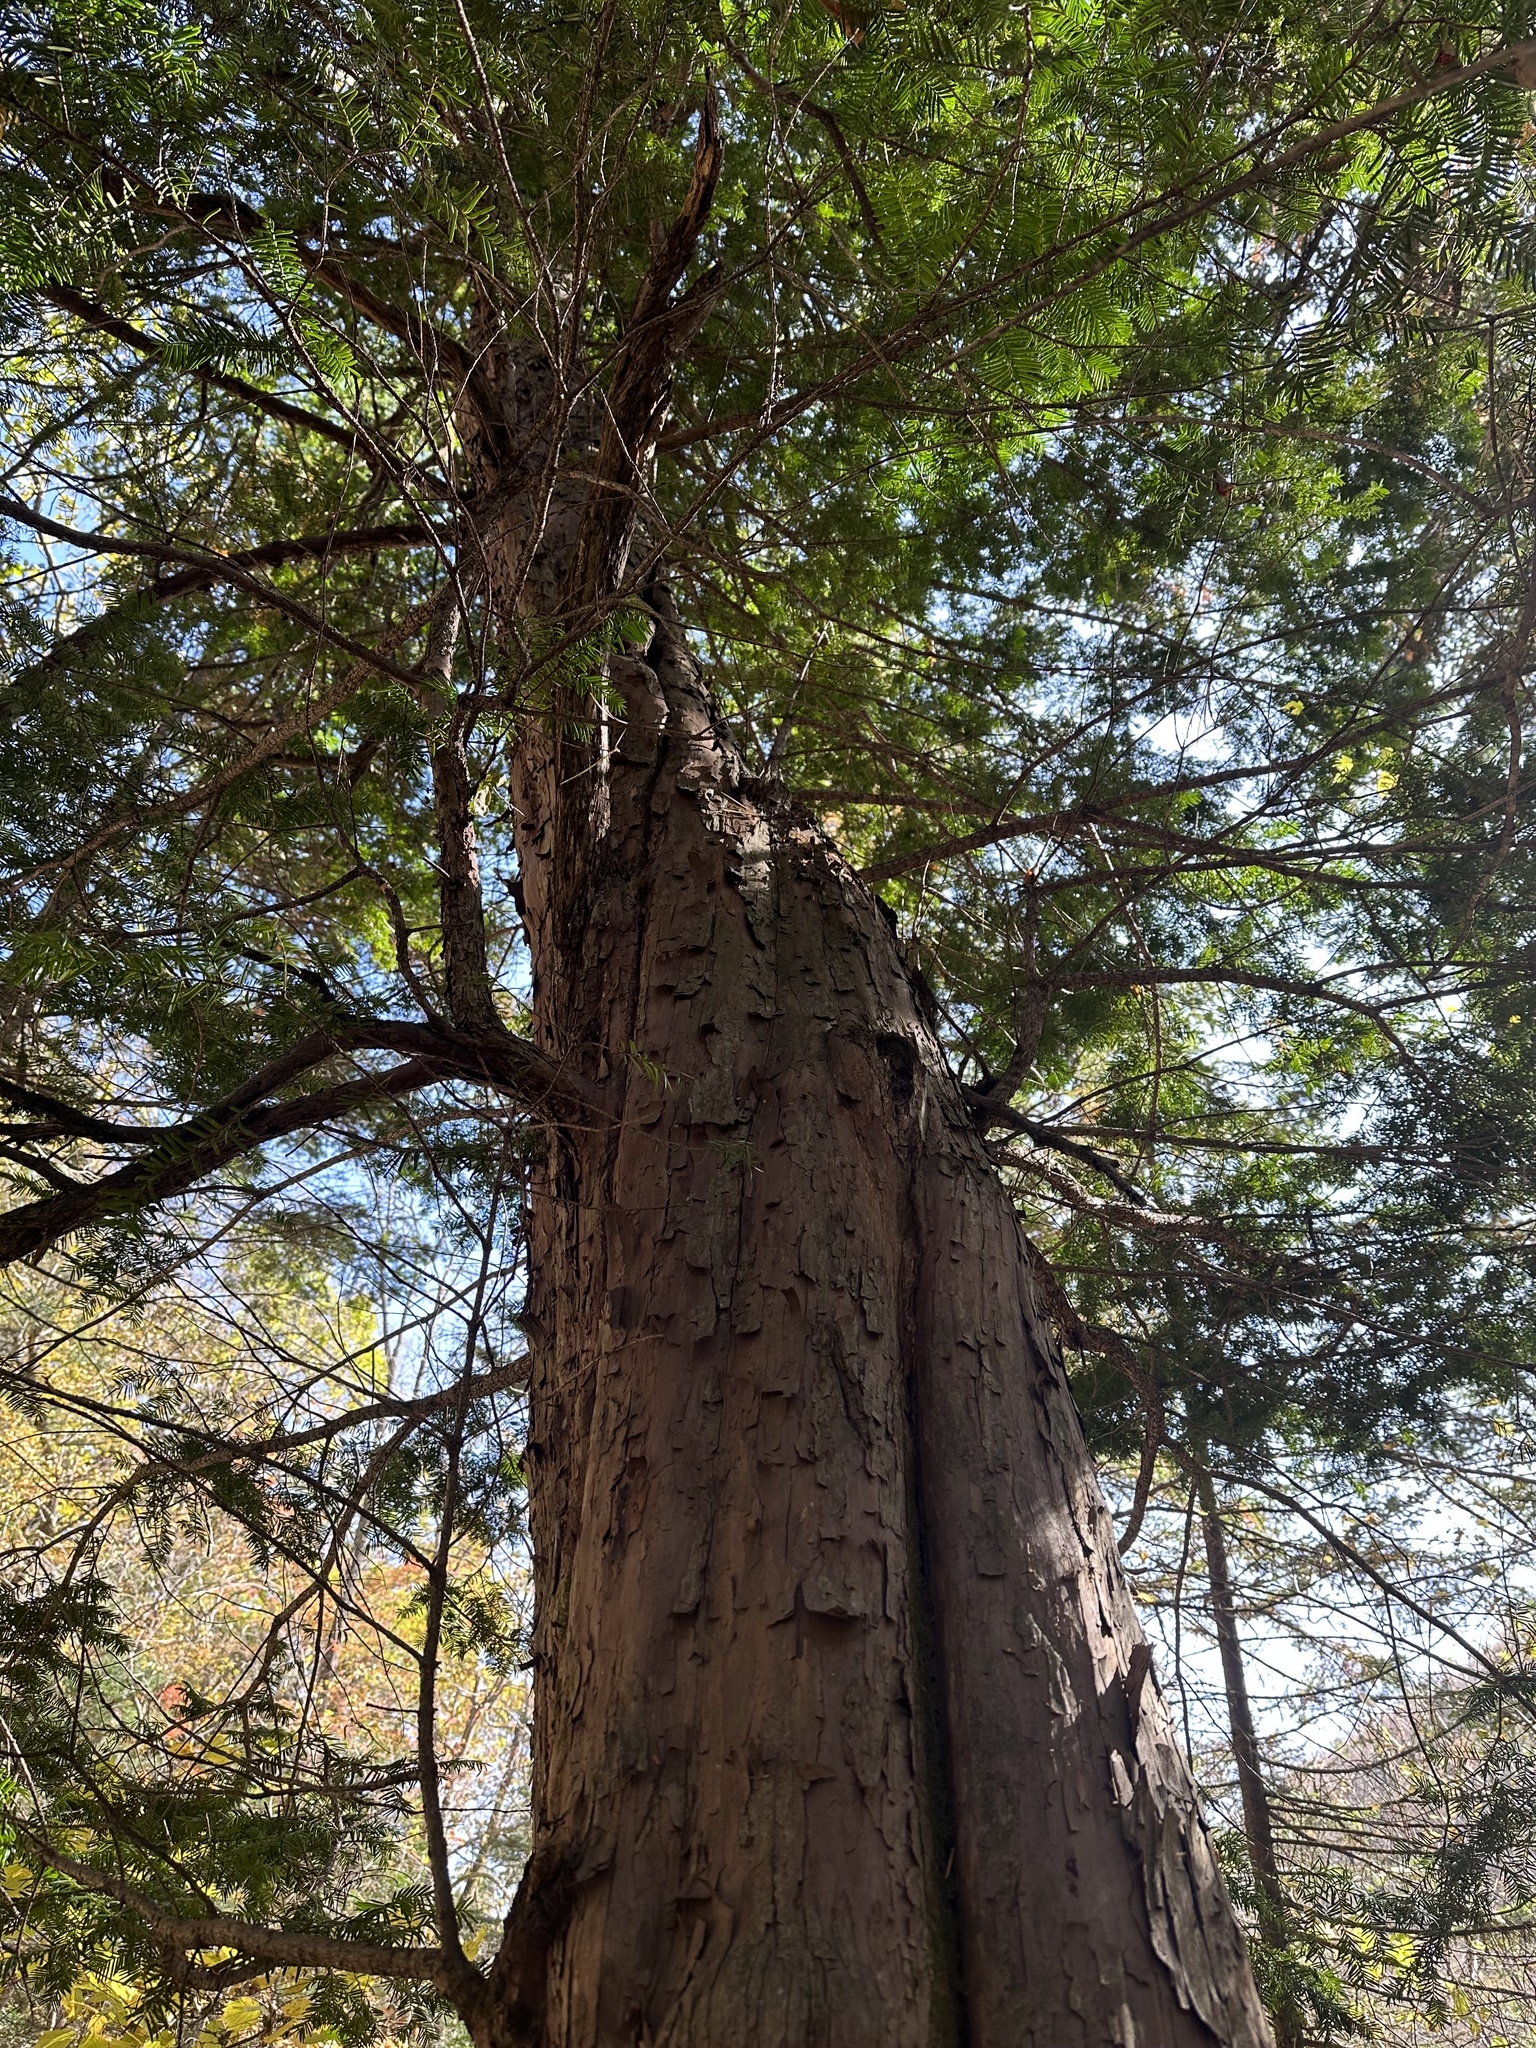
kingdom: Plantae
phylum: Tracheophyta
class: Pinopsida
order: Pinales
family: Taxaceae
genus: Taxus
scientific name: Taxus cuspidata
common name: Japanese yew
